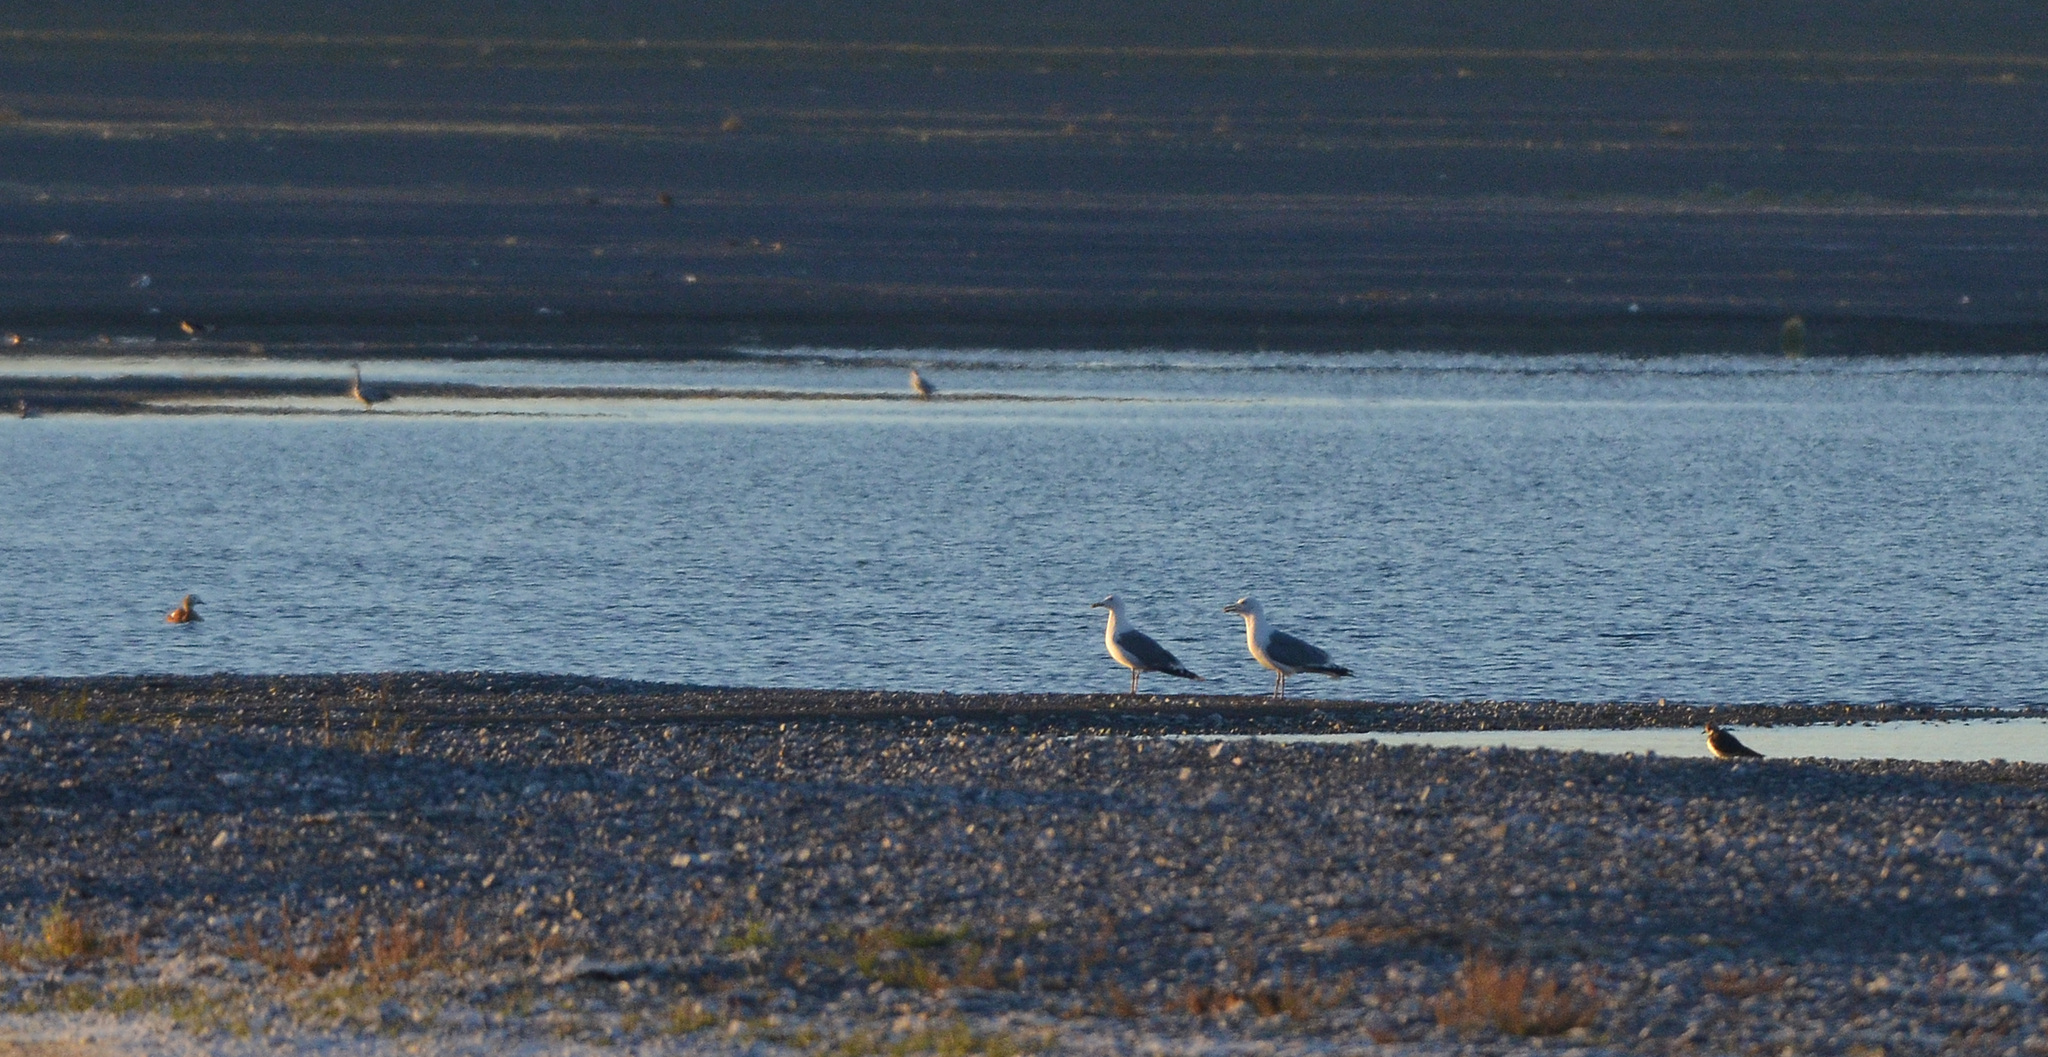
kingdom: Animalia
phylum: Chordata
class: Aves
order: Charadriiformes
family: Charadriidae
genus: Vanellus
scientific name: Vanellus vanellus
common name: Northern lapwing
